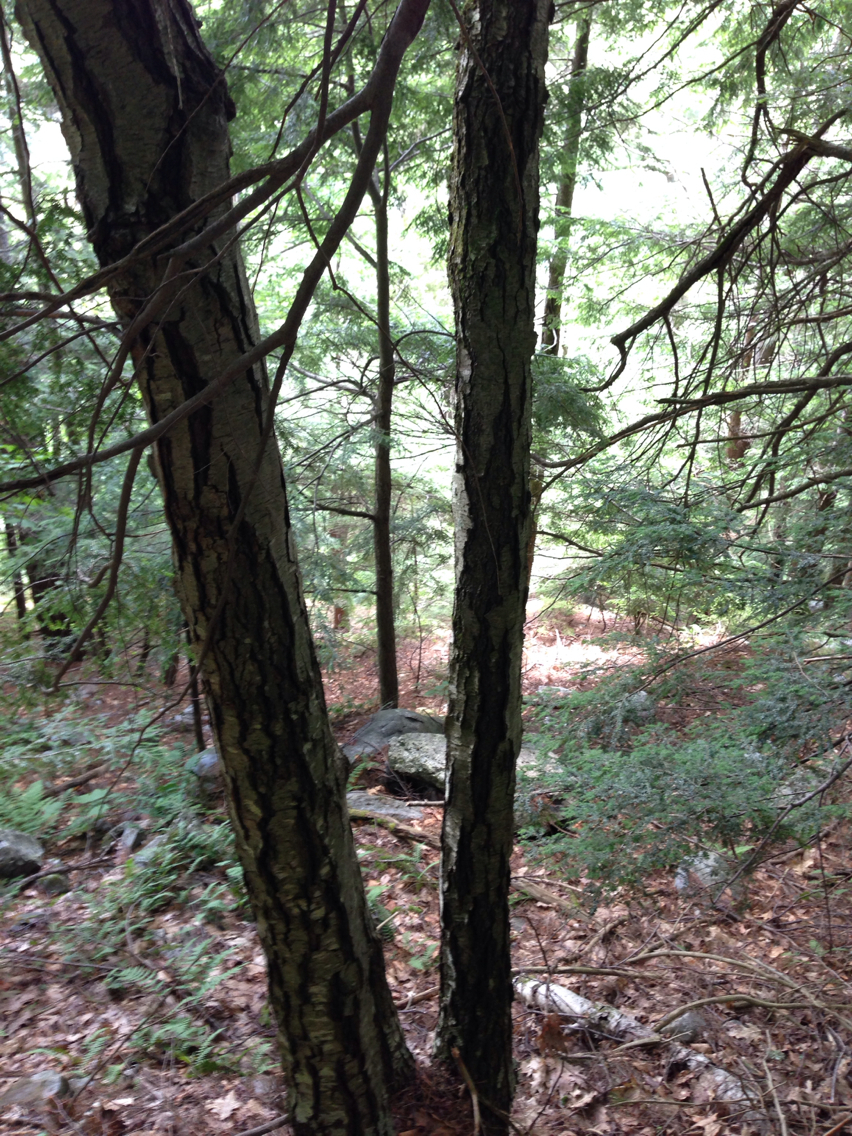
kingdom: Plantae
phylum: Tracheophyta
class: Magnoliopsida
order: Fagales
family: Betulaceae
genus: Betula
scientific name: Betula lenta
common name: Black birch
